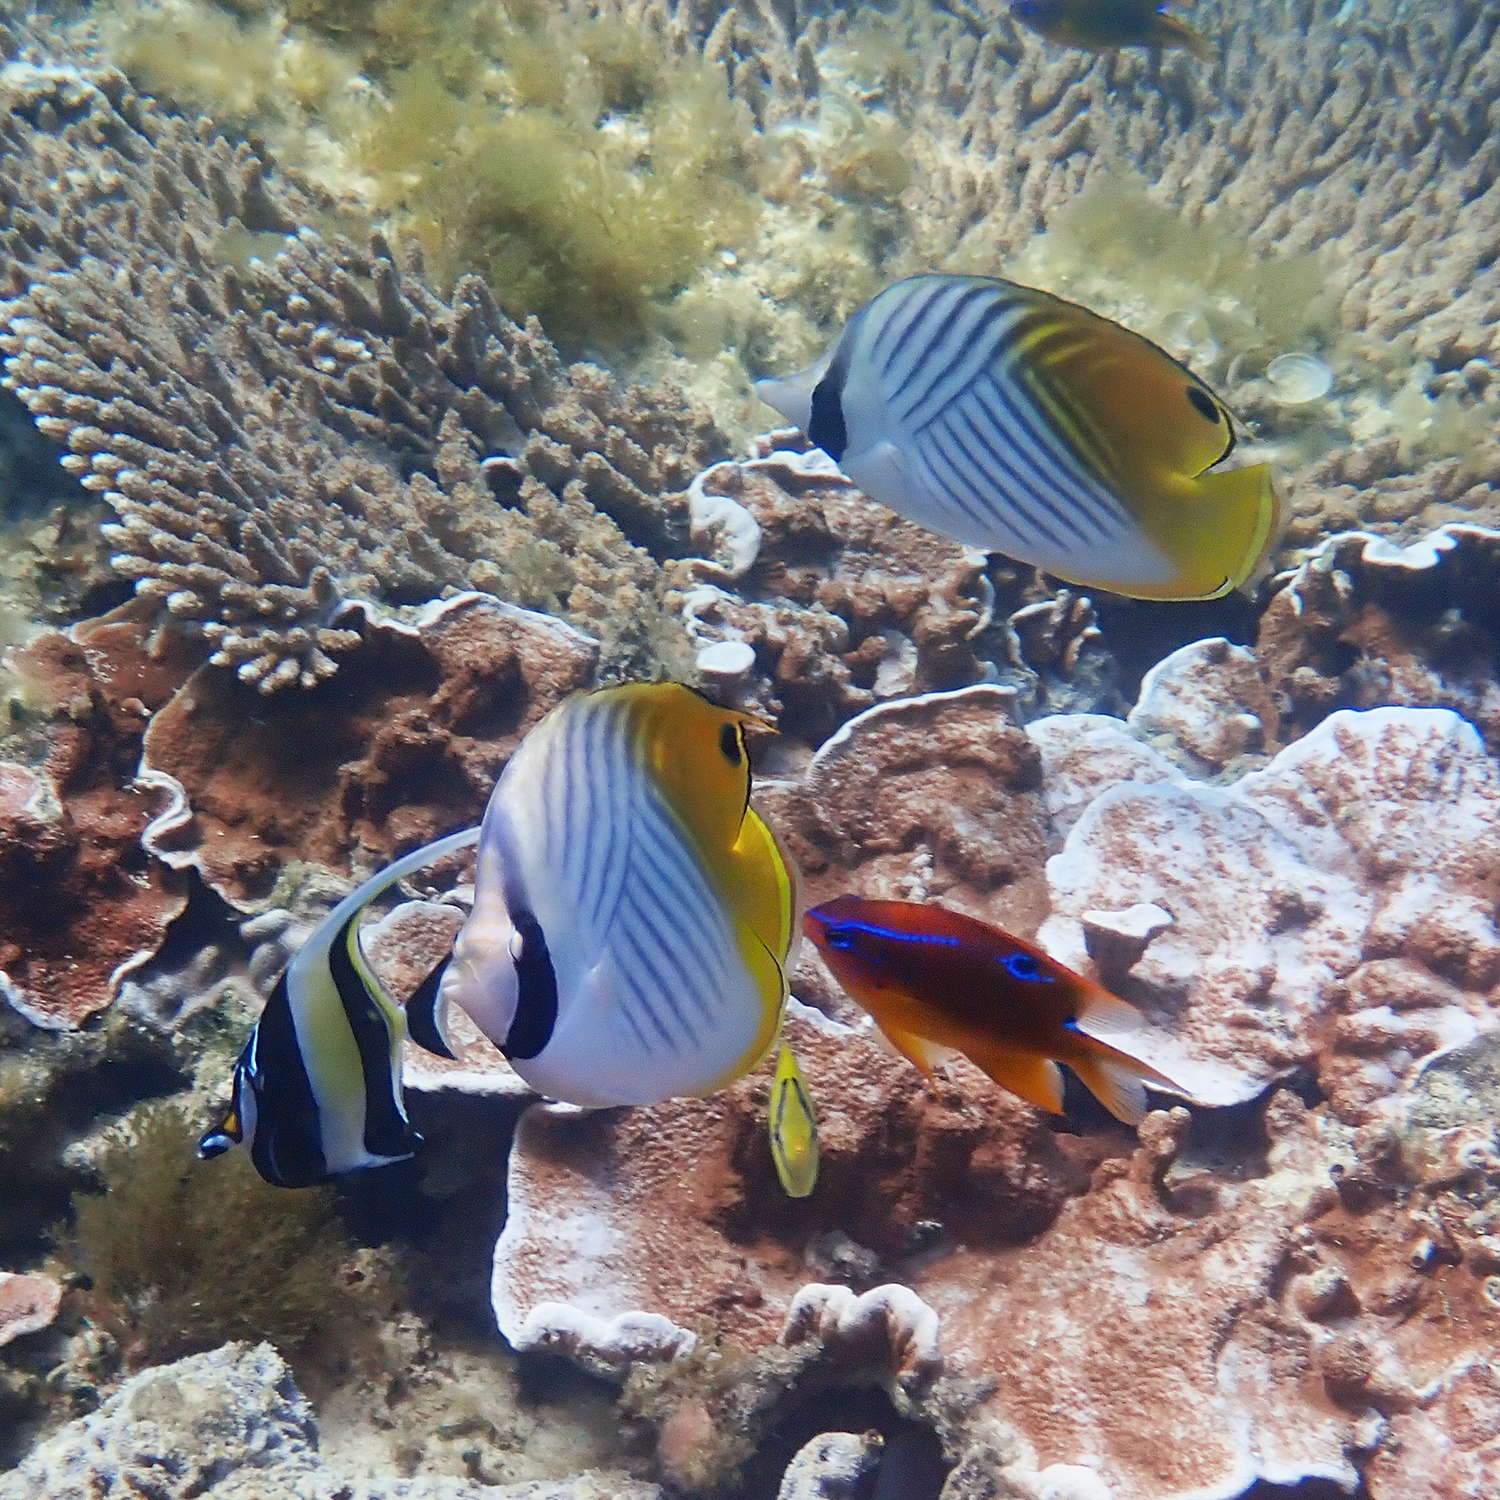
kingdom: Animalia
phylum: Chordata
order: Perciformes
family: Chaetodontidae
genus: Chaetodon
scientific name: Chaetodon auriga
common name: Threadfin butterflyfish
